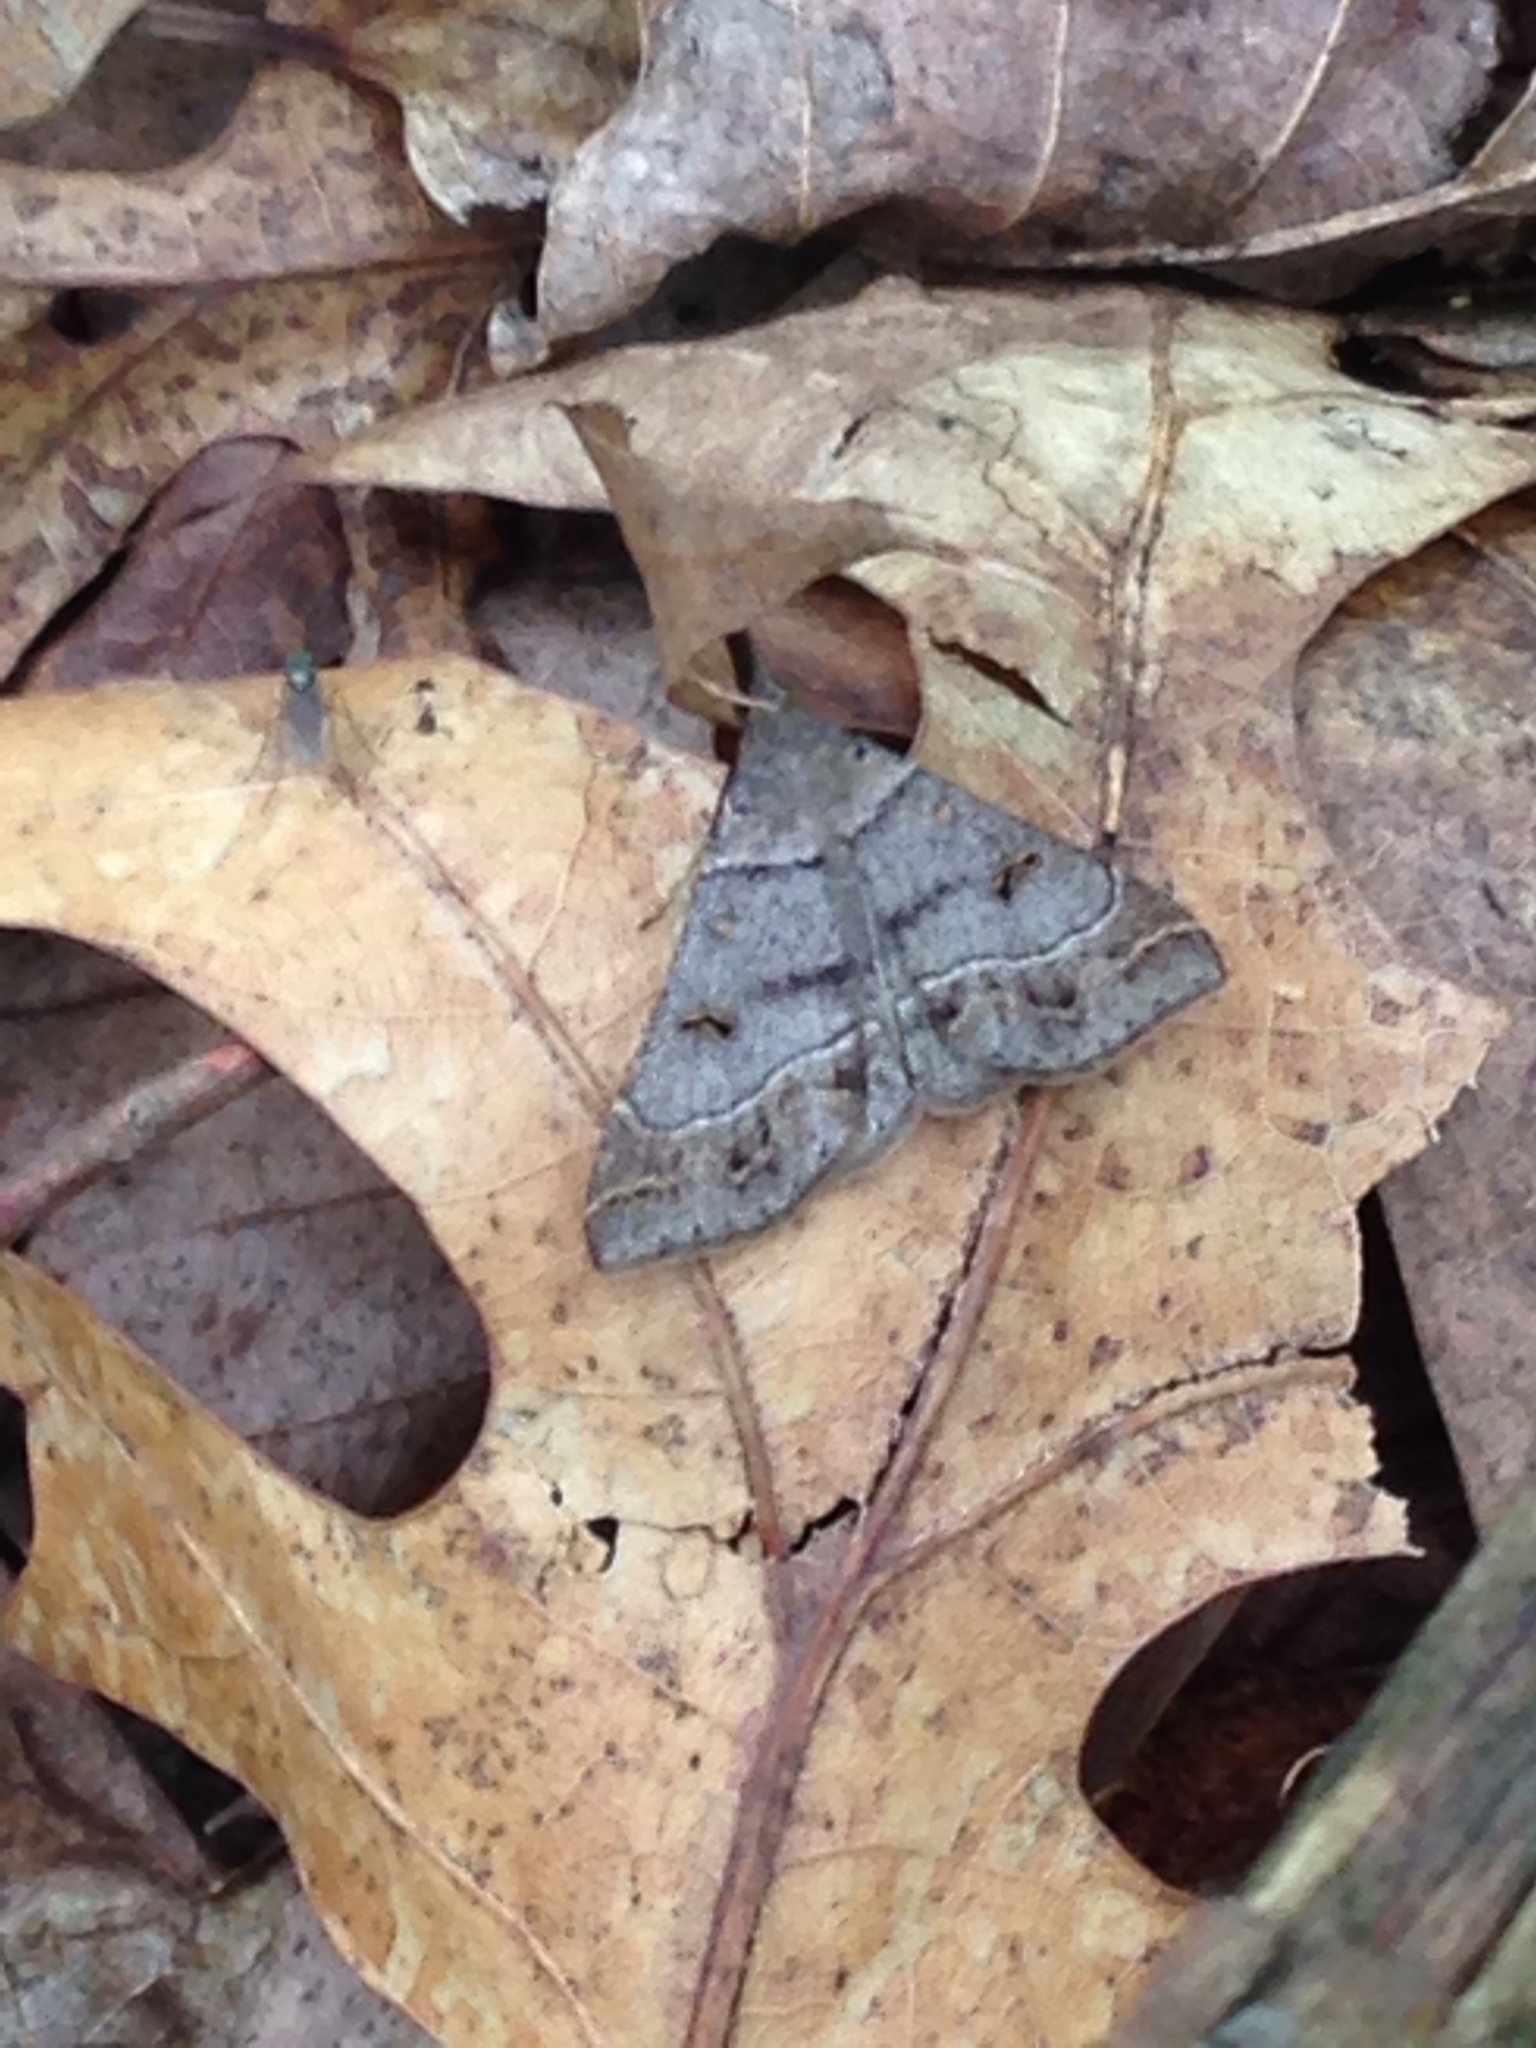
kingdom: Animalia
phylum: Arthropoda
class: Insecta
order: Lepidoptera
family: Erebidae
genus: Renia
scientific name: Renia flavipunctalis
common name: Yellow-spotted renia moth
